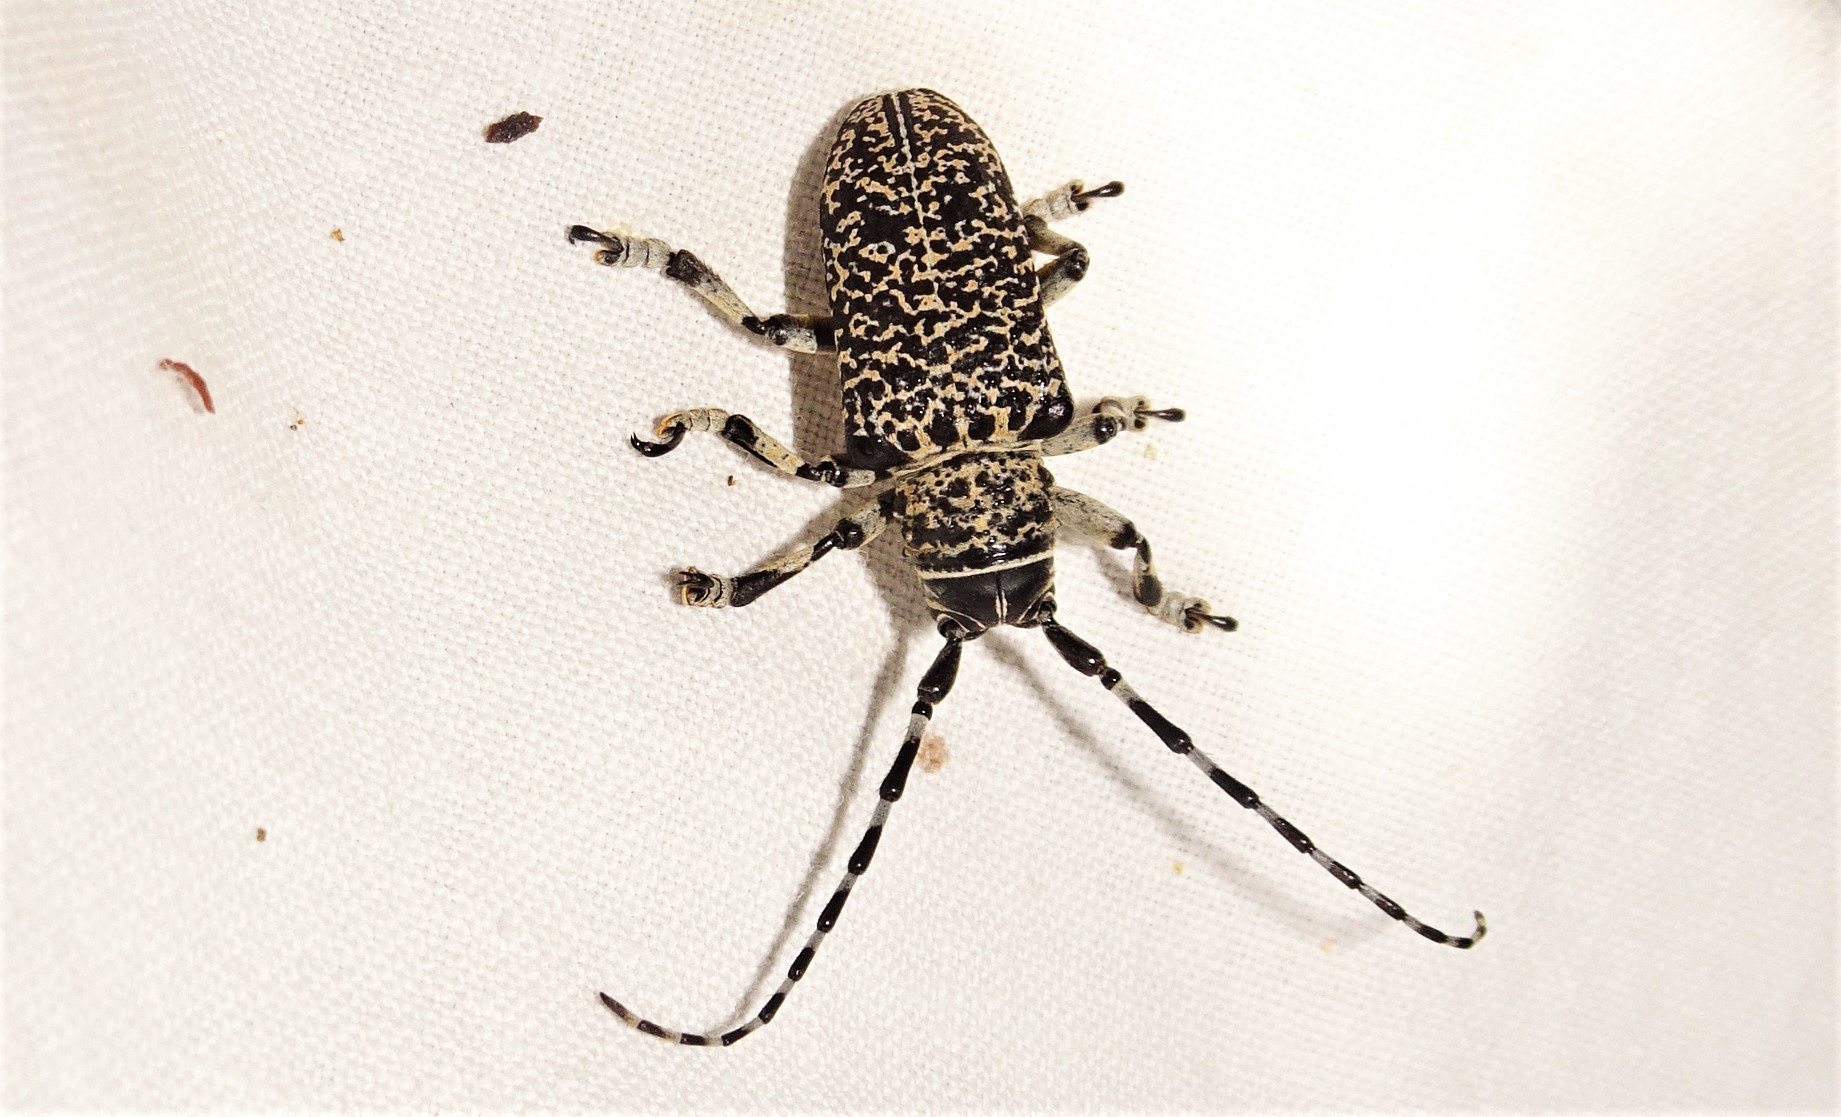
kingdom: Animalia
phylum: Arthropoda
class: Insecta
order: Coleoptera
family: Cerambycidae
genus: Rhytiphora
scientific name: Rhytiphora vermicularia
